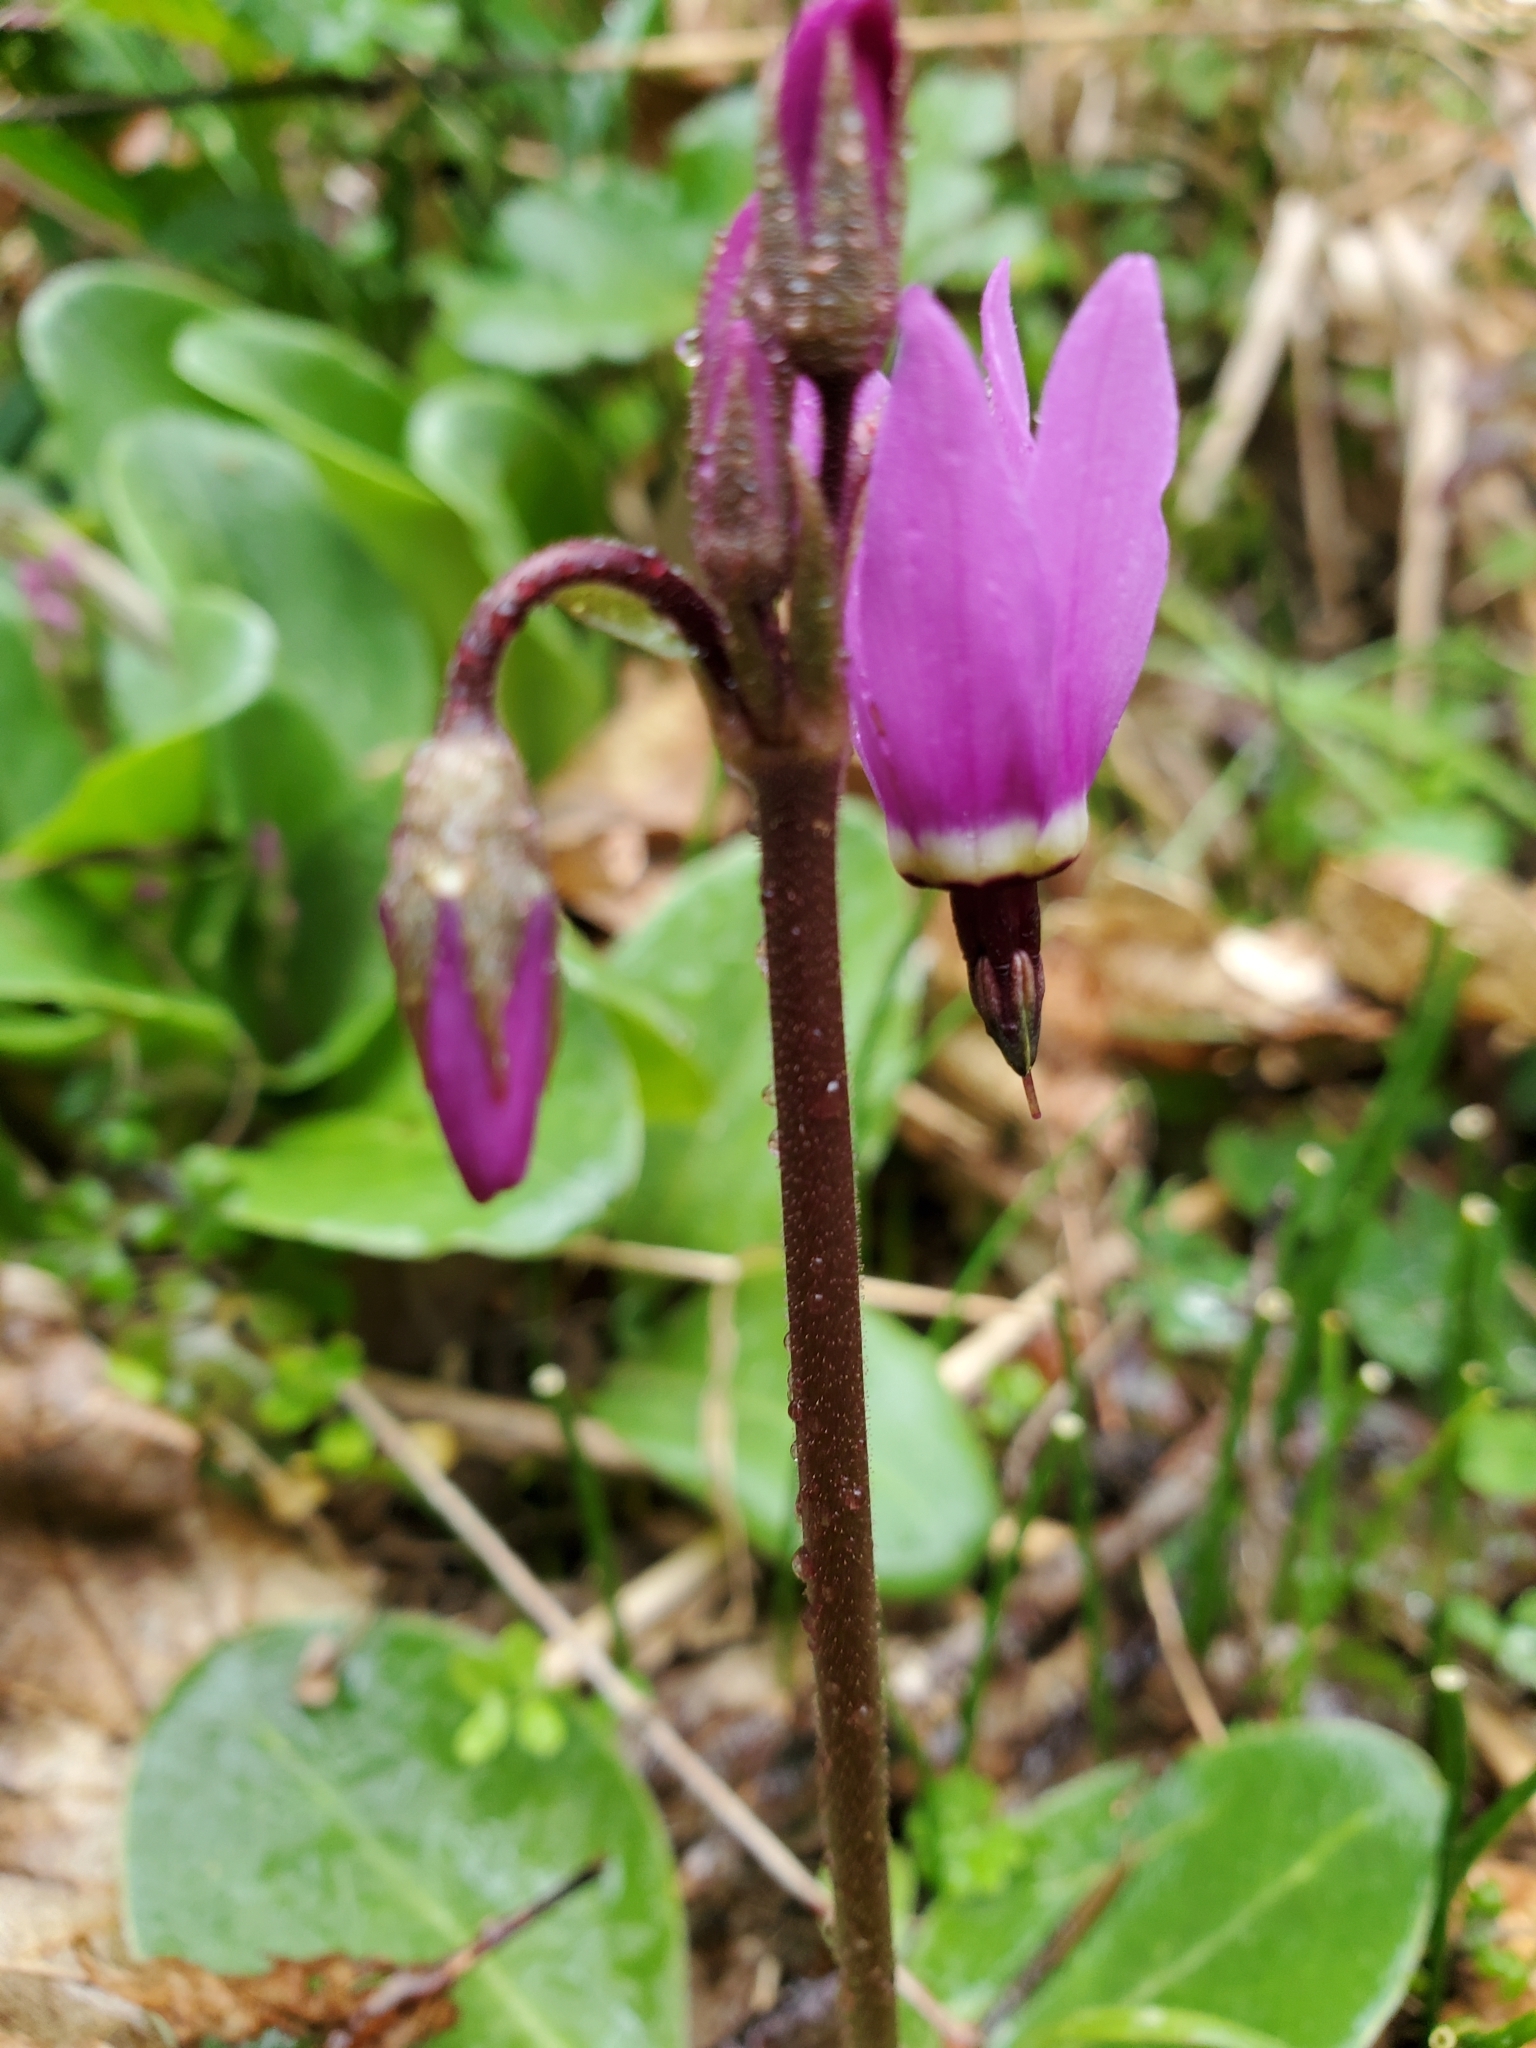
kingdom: Plantae
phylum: Tracheophyta
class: Magnoliopsida
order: Ericales
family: Primulaceae
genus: Dodecatheon
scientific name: Dodecatheon hendersonii
